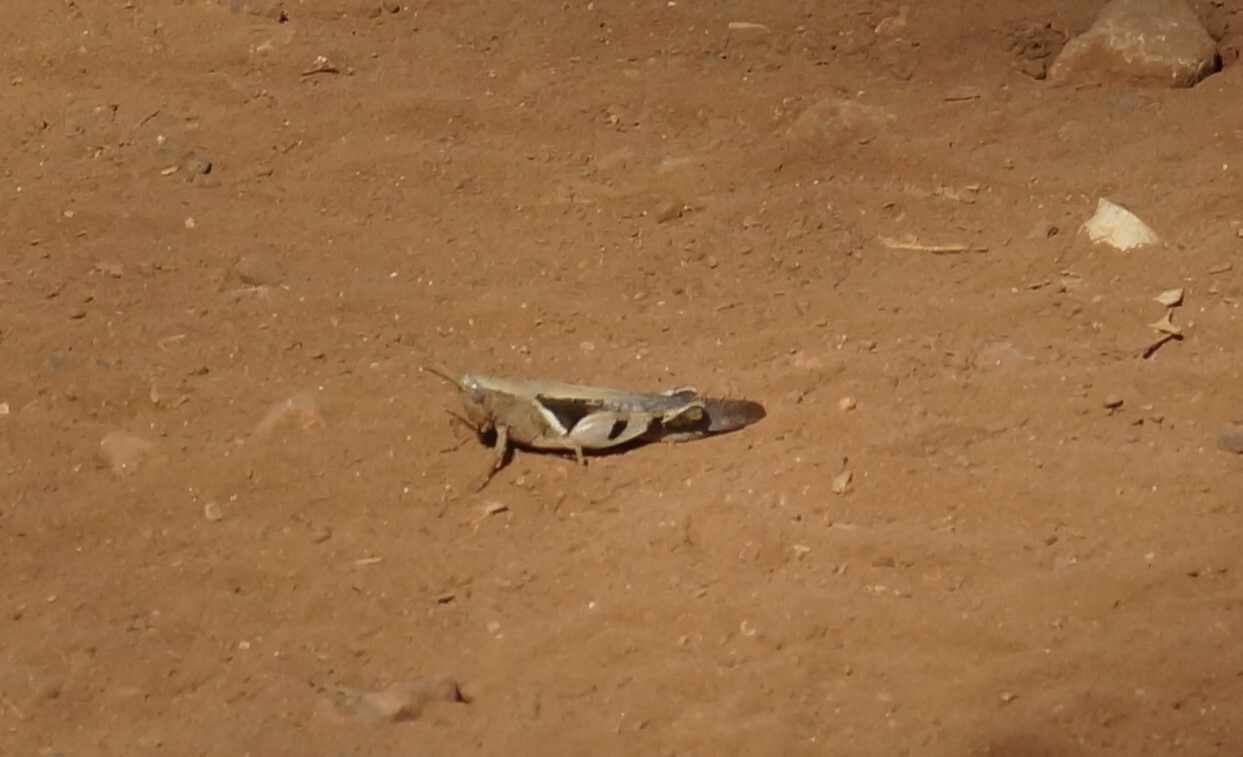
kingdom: Animalia
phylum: Arthropoda
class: Insecta
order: Orthoptera
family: Acrididae
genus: Stenocatantops
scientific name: Stenocatantops angustifrons
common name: Common tropical sharptail
